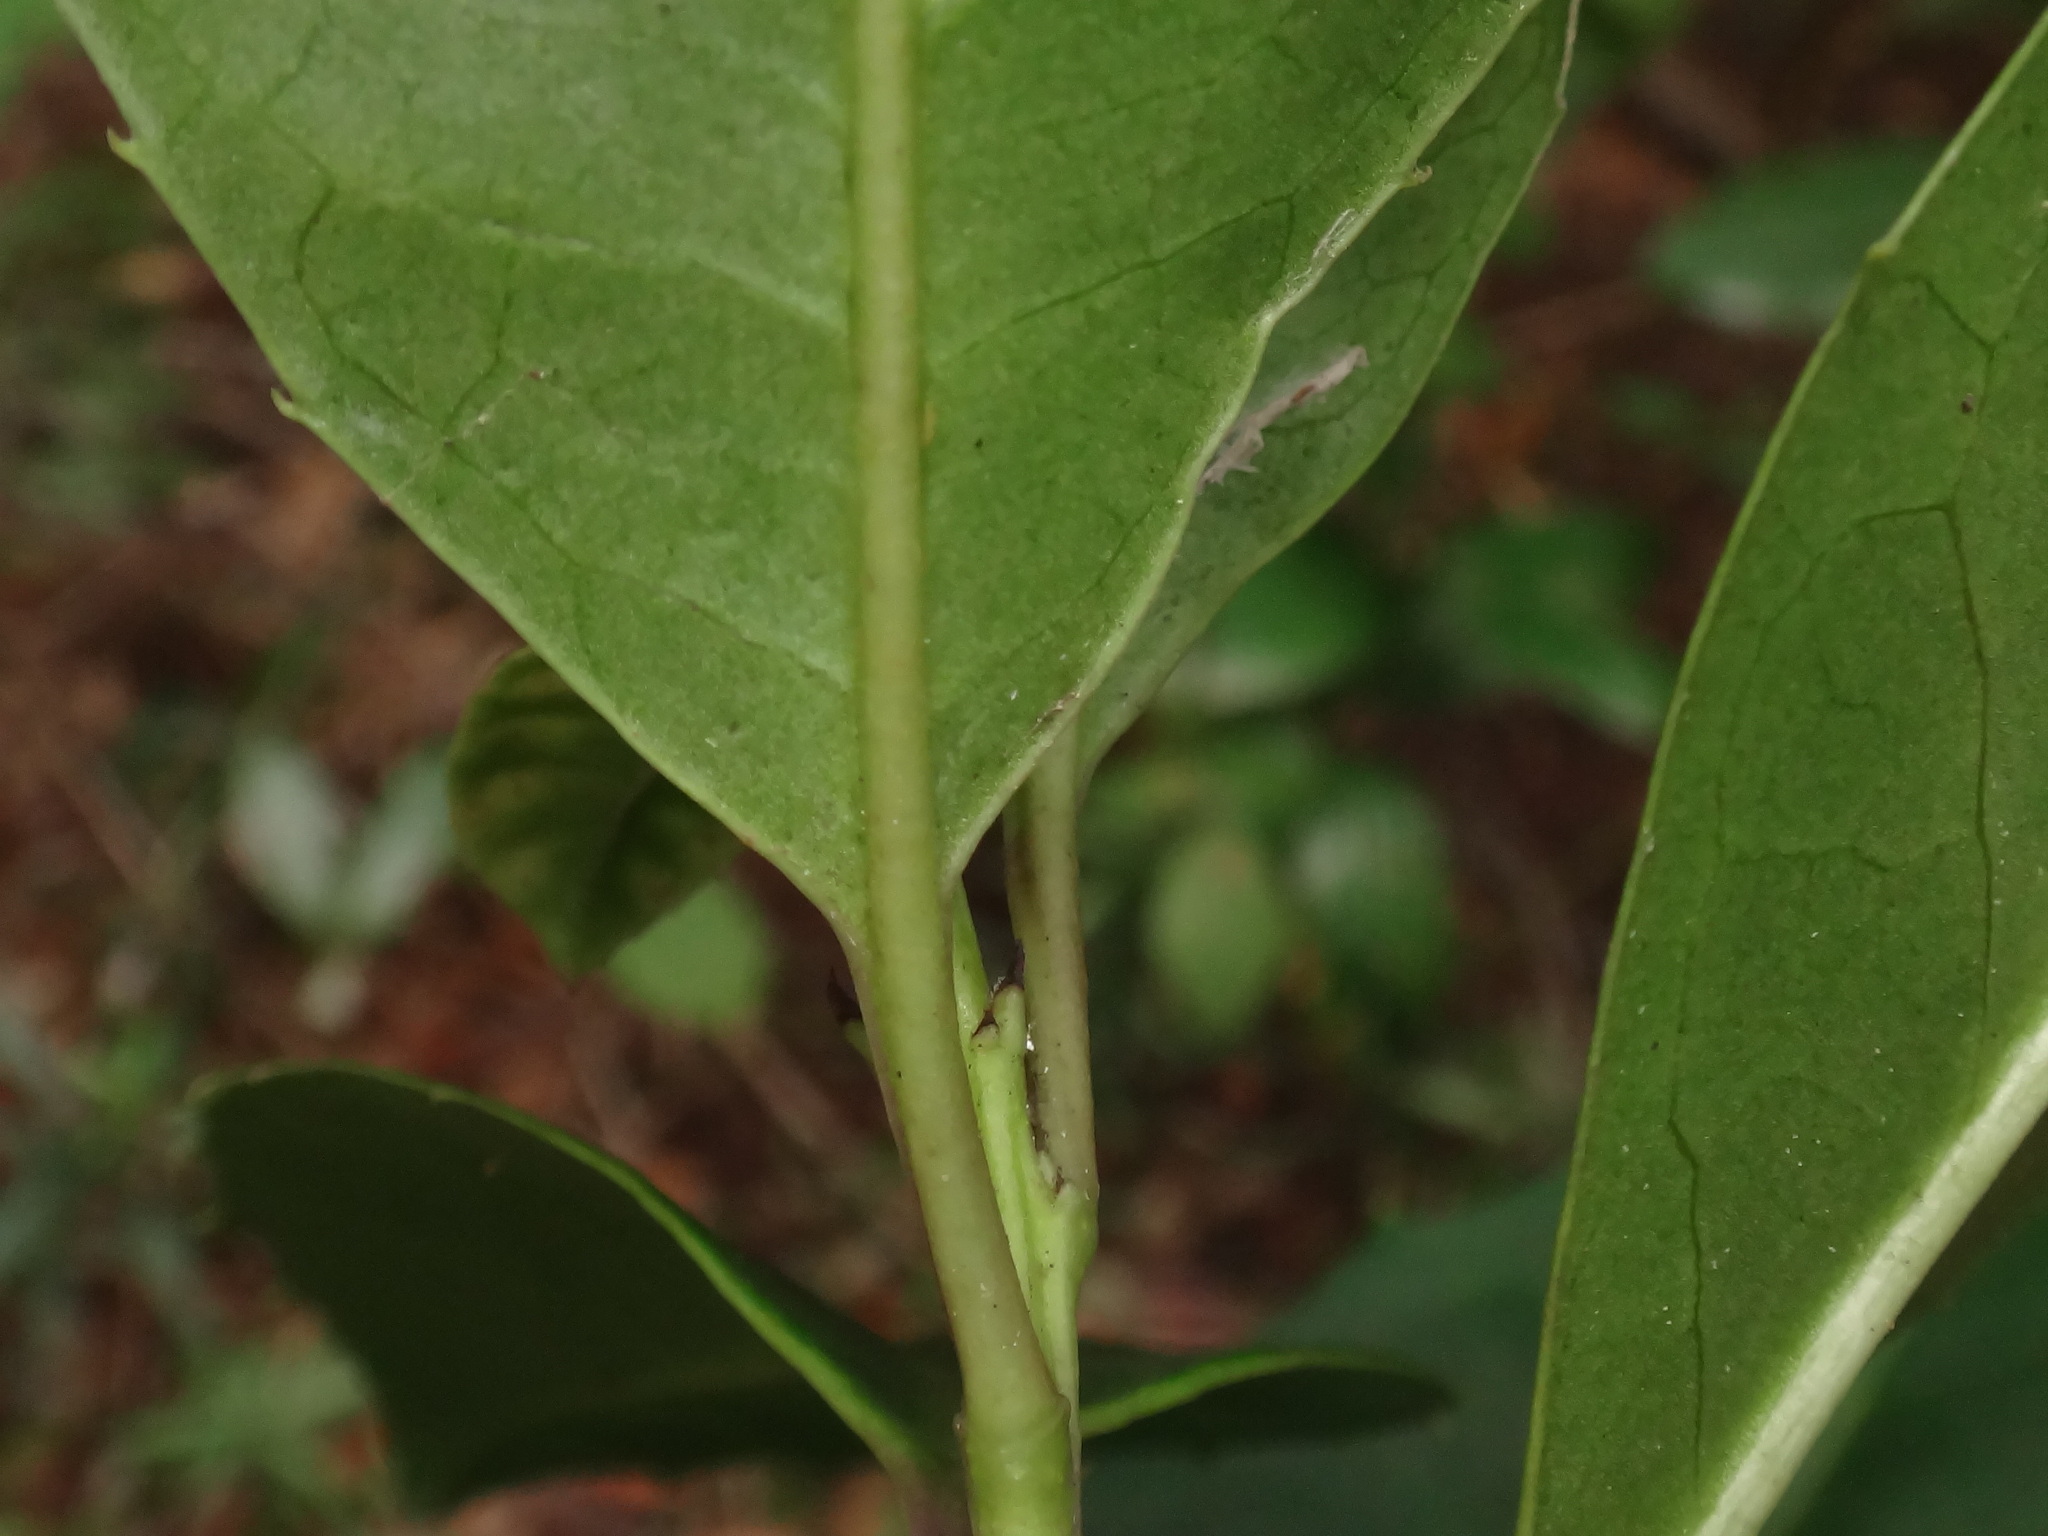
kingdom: Plantae
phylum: Tracheophyta
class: Magnoliopsida
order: Aquifoliales
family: Aquifoliaceae
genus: Ilex
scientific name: Ilex canariensis
